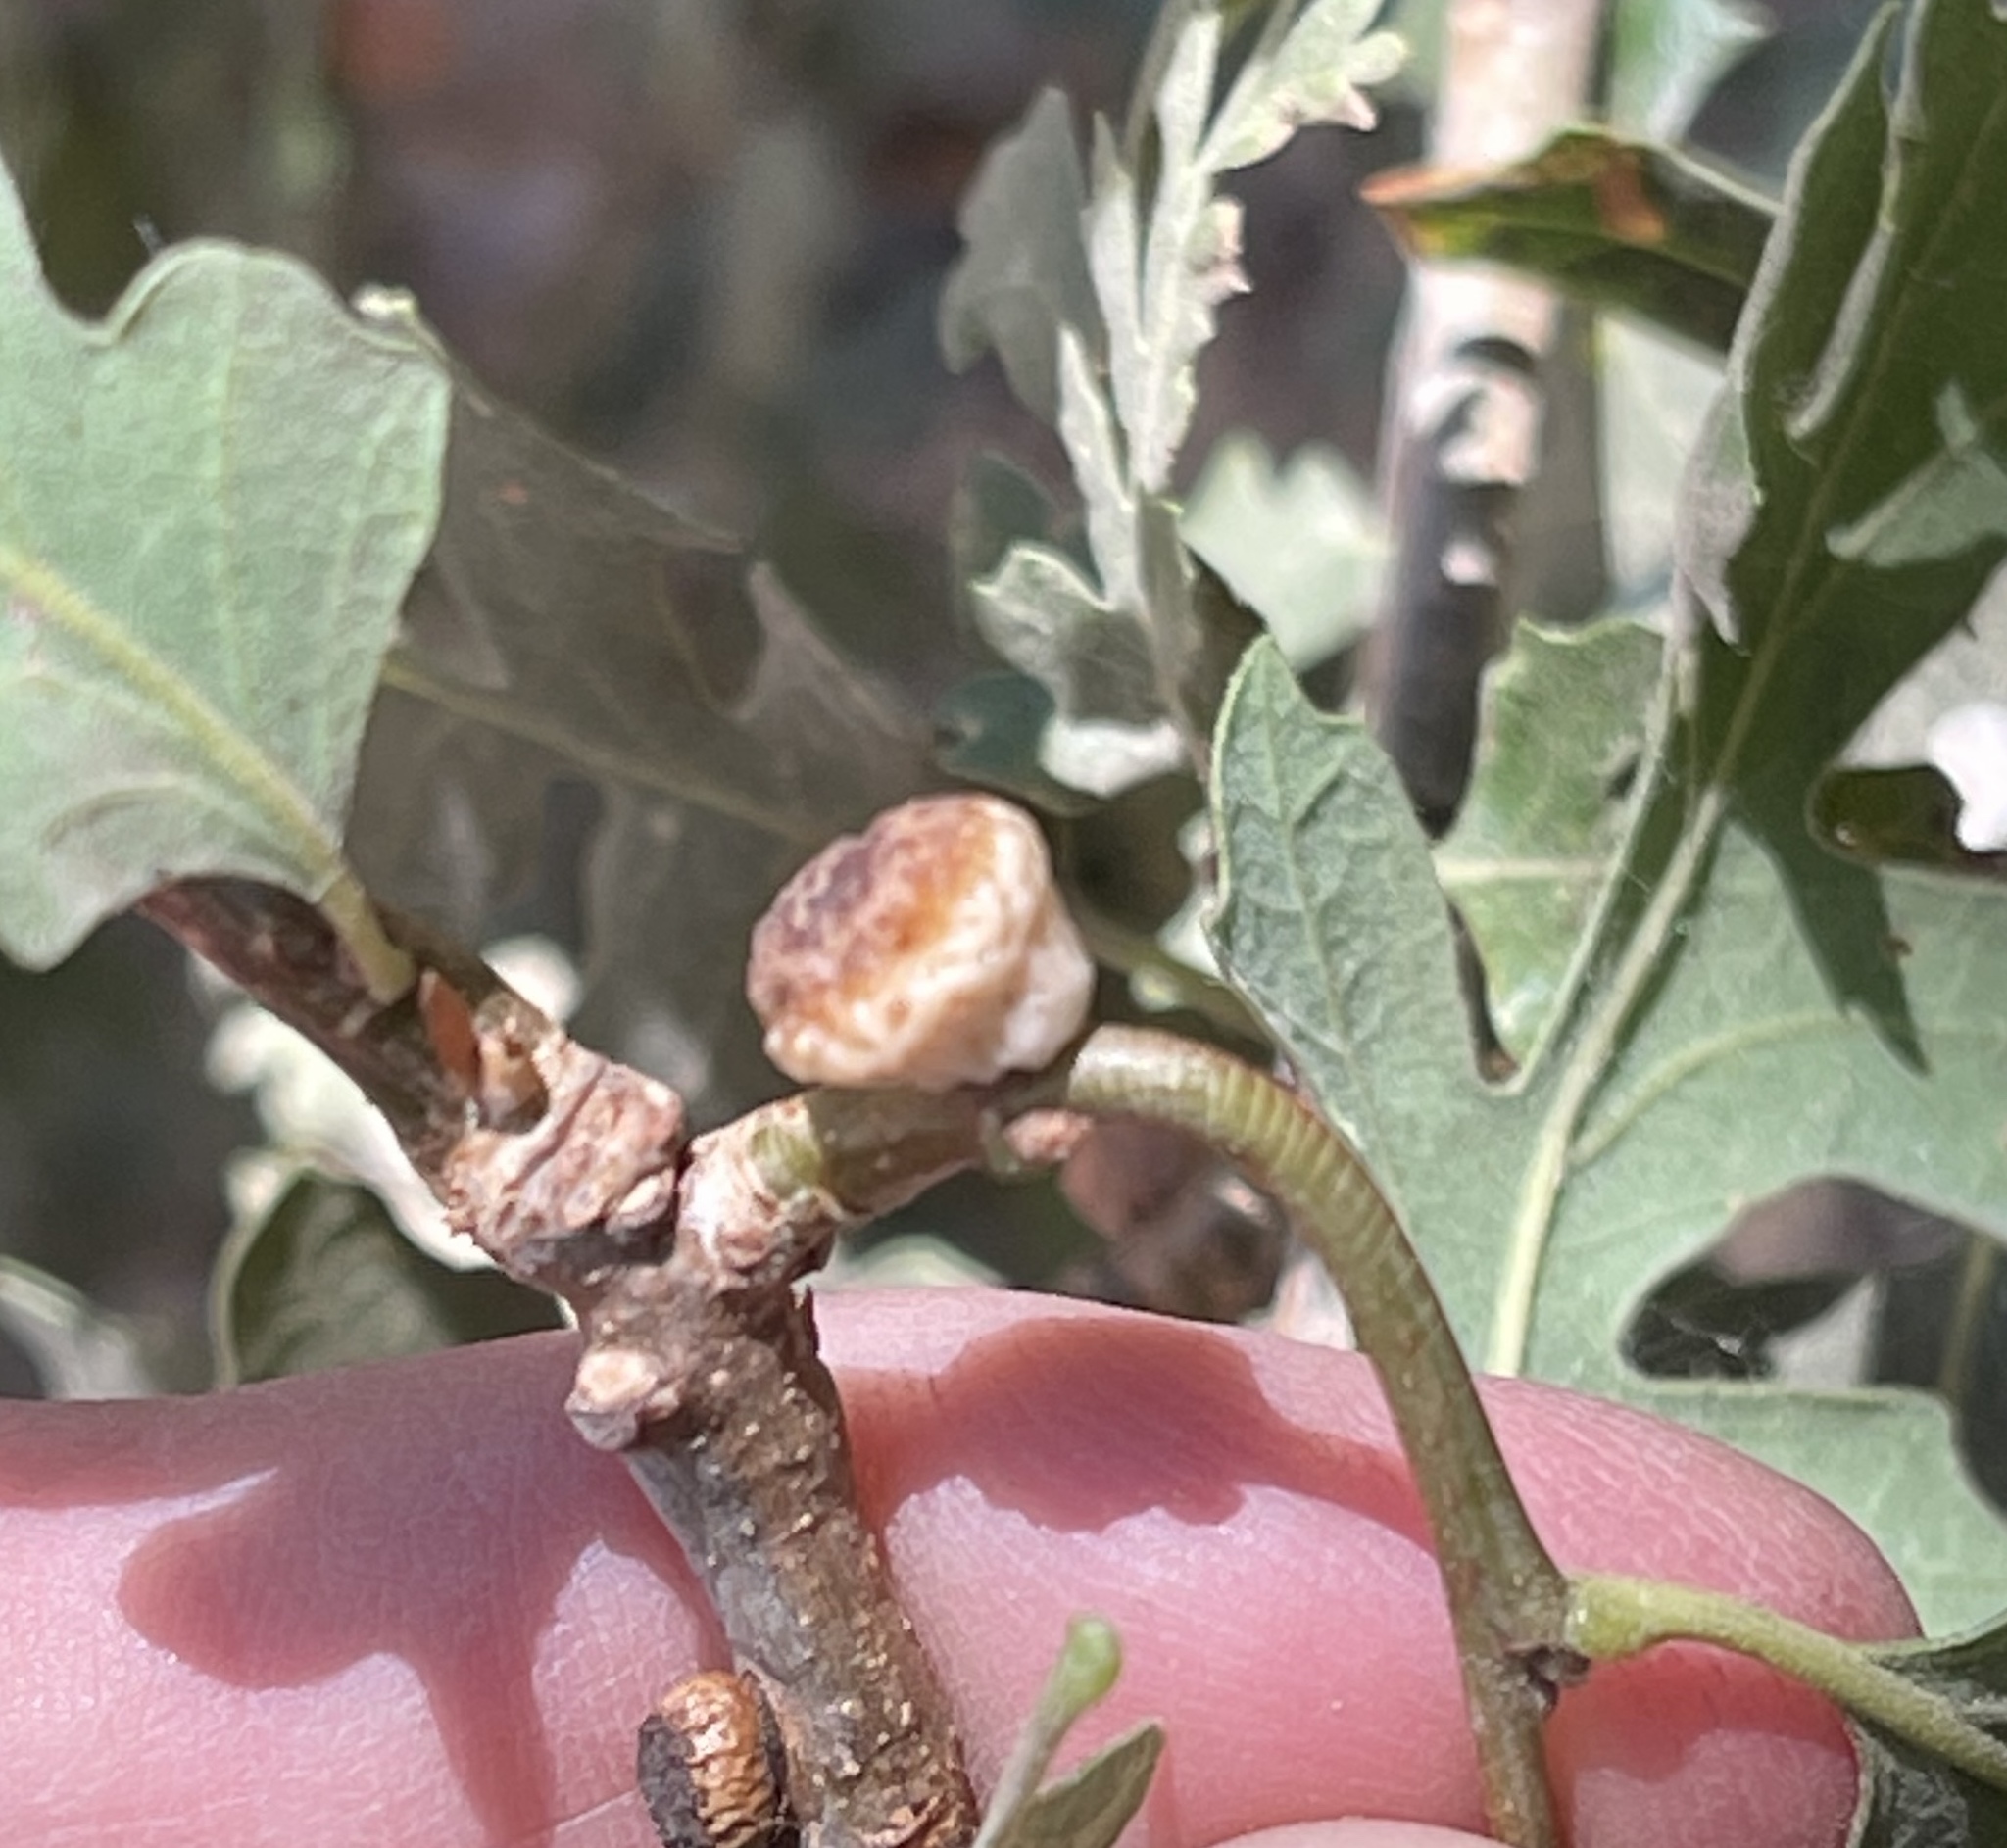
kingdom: Animalia
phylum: Arthropoda
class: Insecta
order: Hymenoptera
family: Cynipidae
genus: Disholcaspis
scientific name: Disholcaspis
